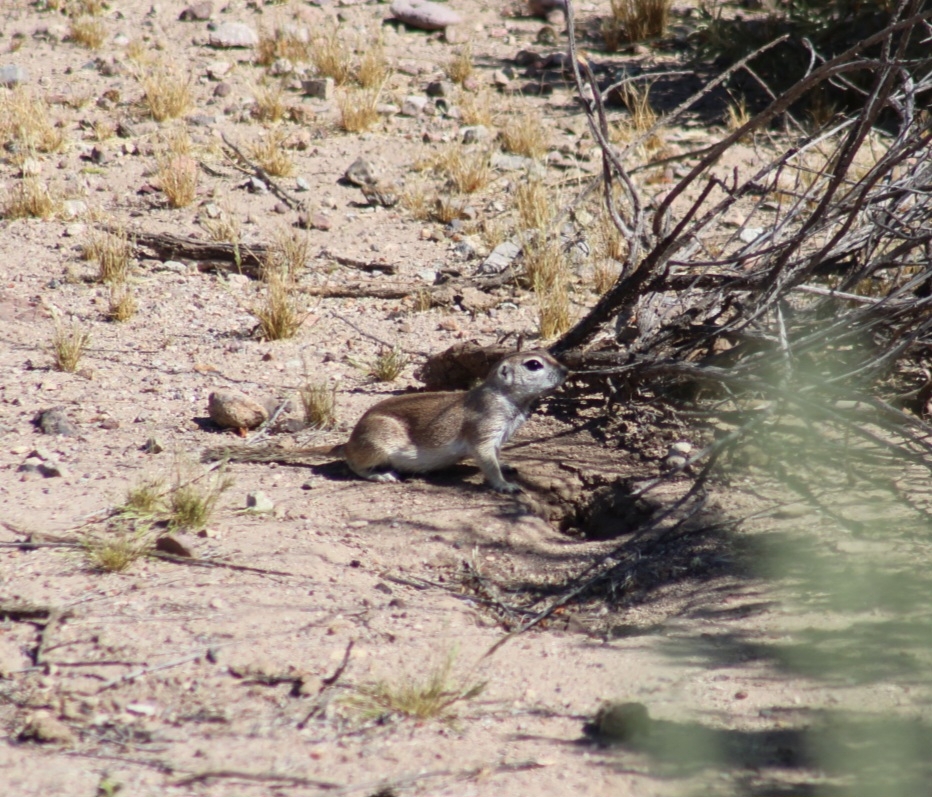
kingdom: Animalia
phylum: Chordata
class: Mammalia
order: Rodentia
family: Sciuridae
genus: Xerospermophilus
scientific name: Xerospermophilus tereticaudus
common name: Round-tailed ground squirrel
